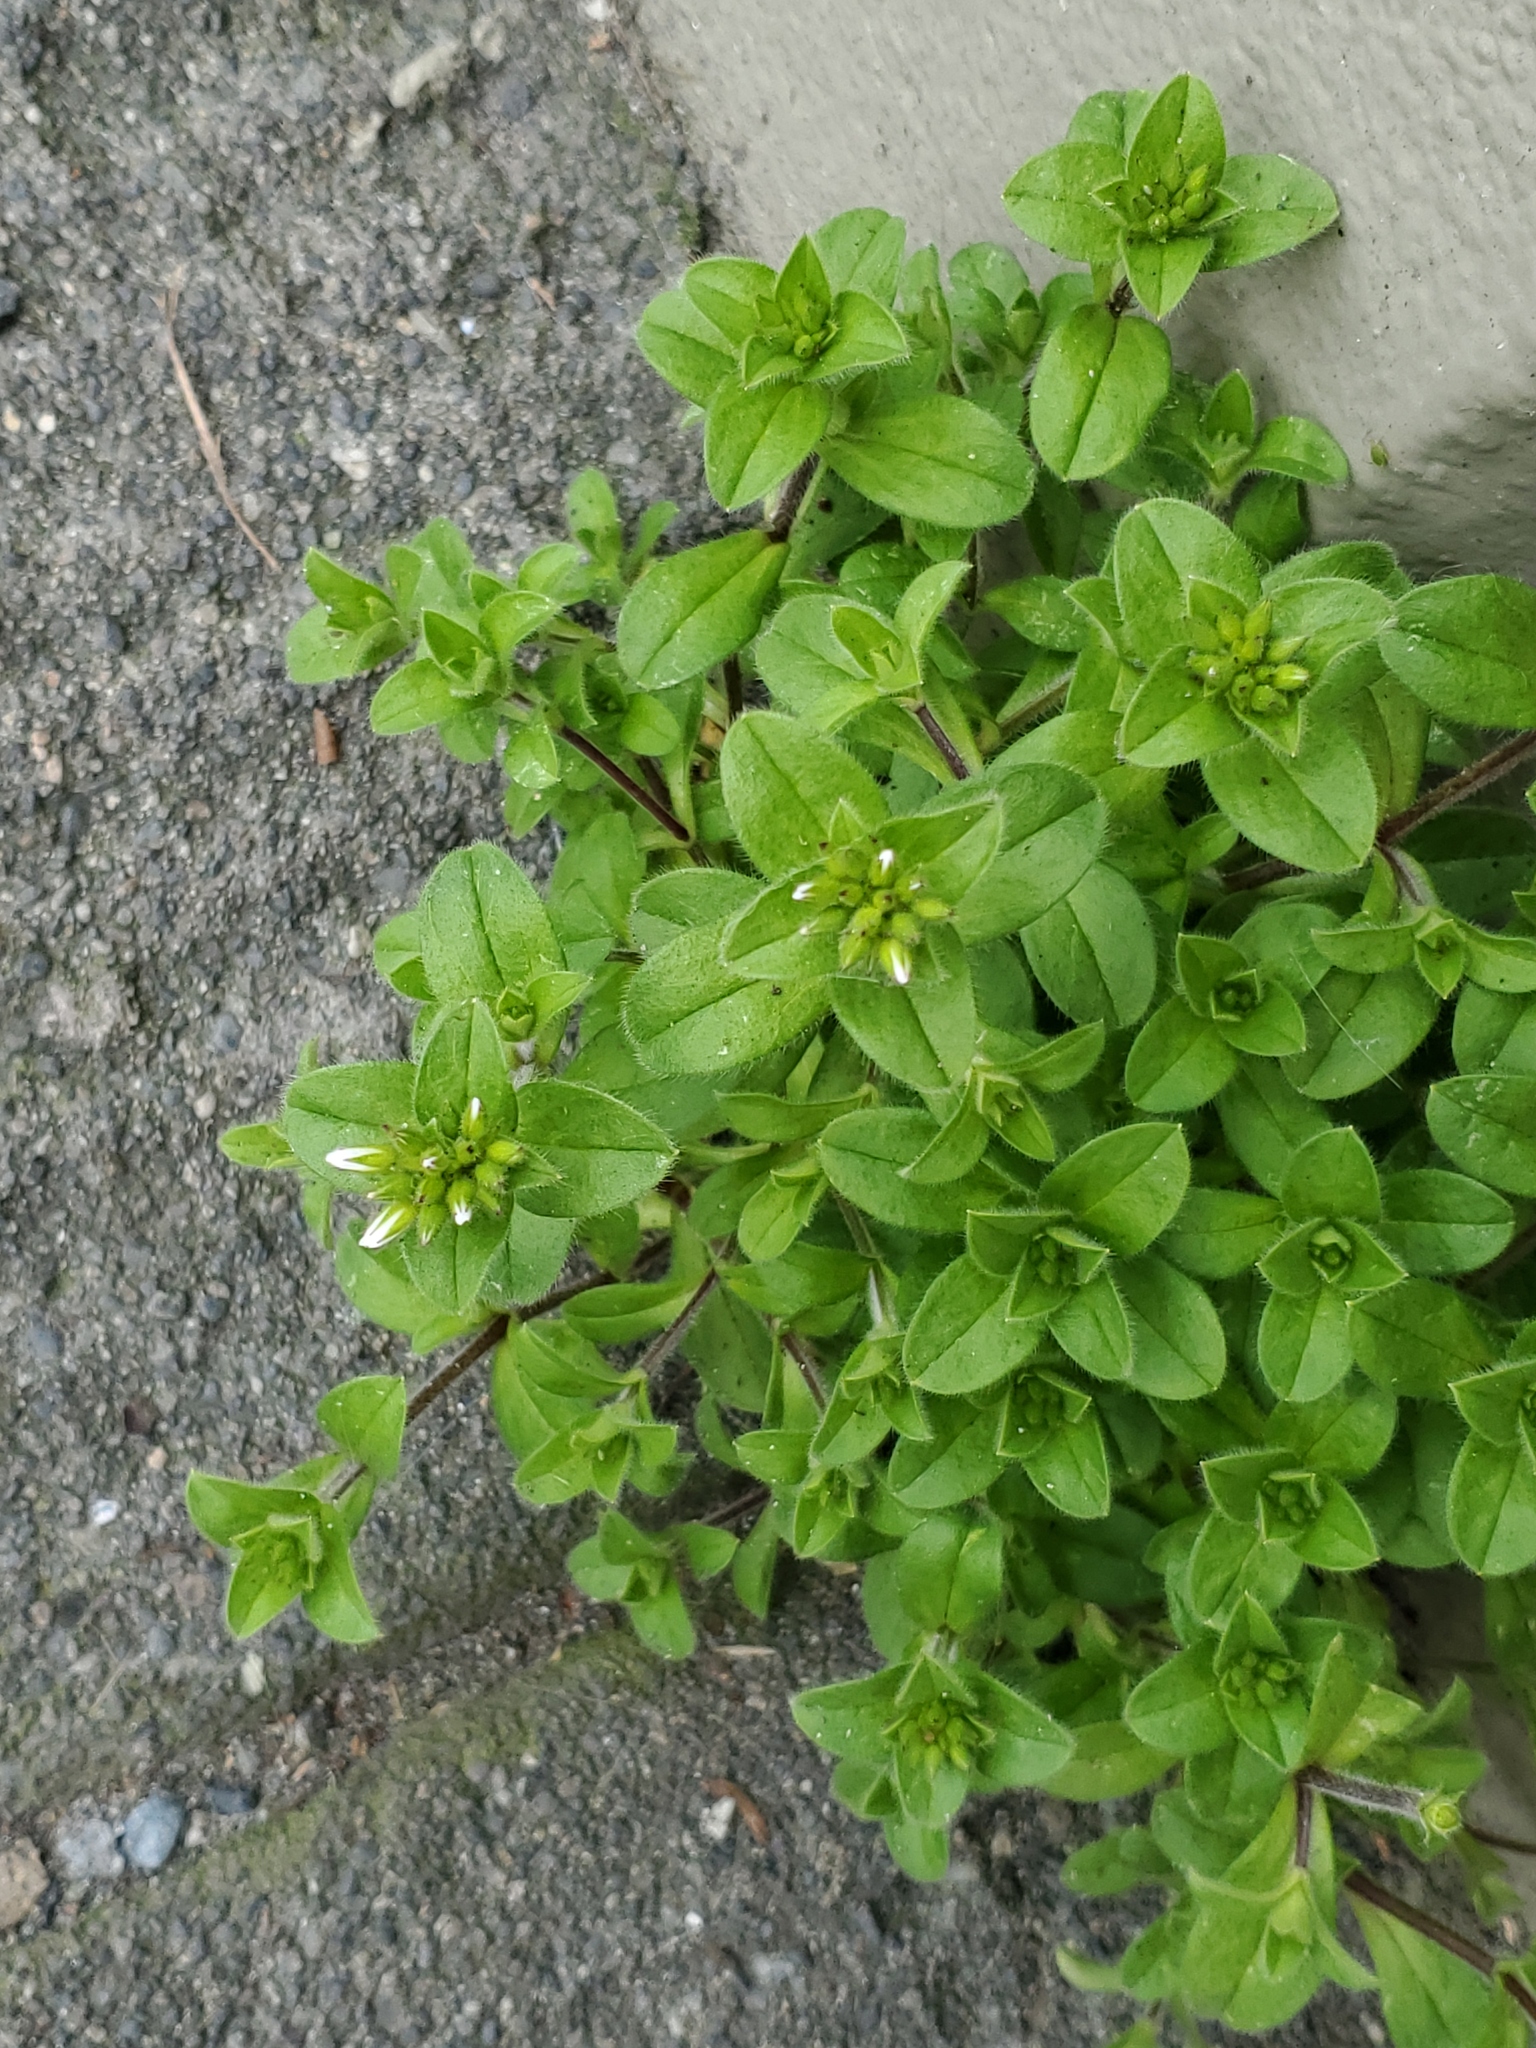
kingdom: Plantae
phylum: Tracheophyta
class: Magnoliopsida
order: Caryophyllales
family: Caryophyllaceae
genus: Cerastium
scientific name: Cerastium glomeratum
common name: Sticky chickweed
